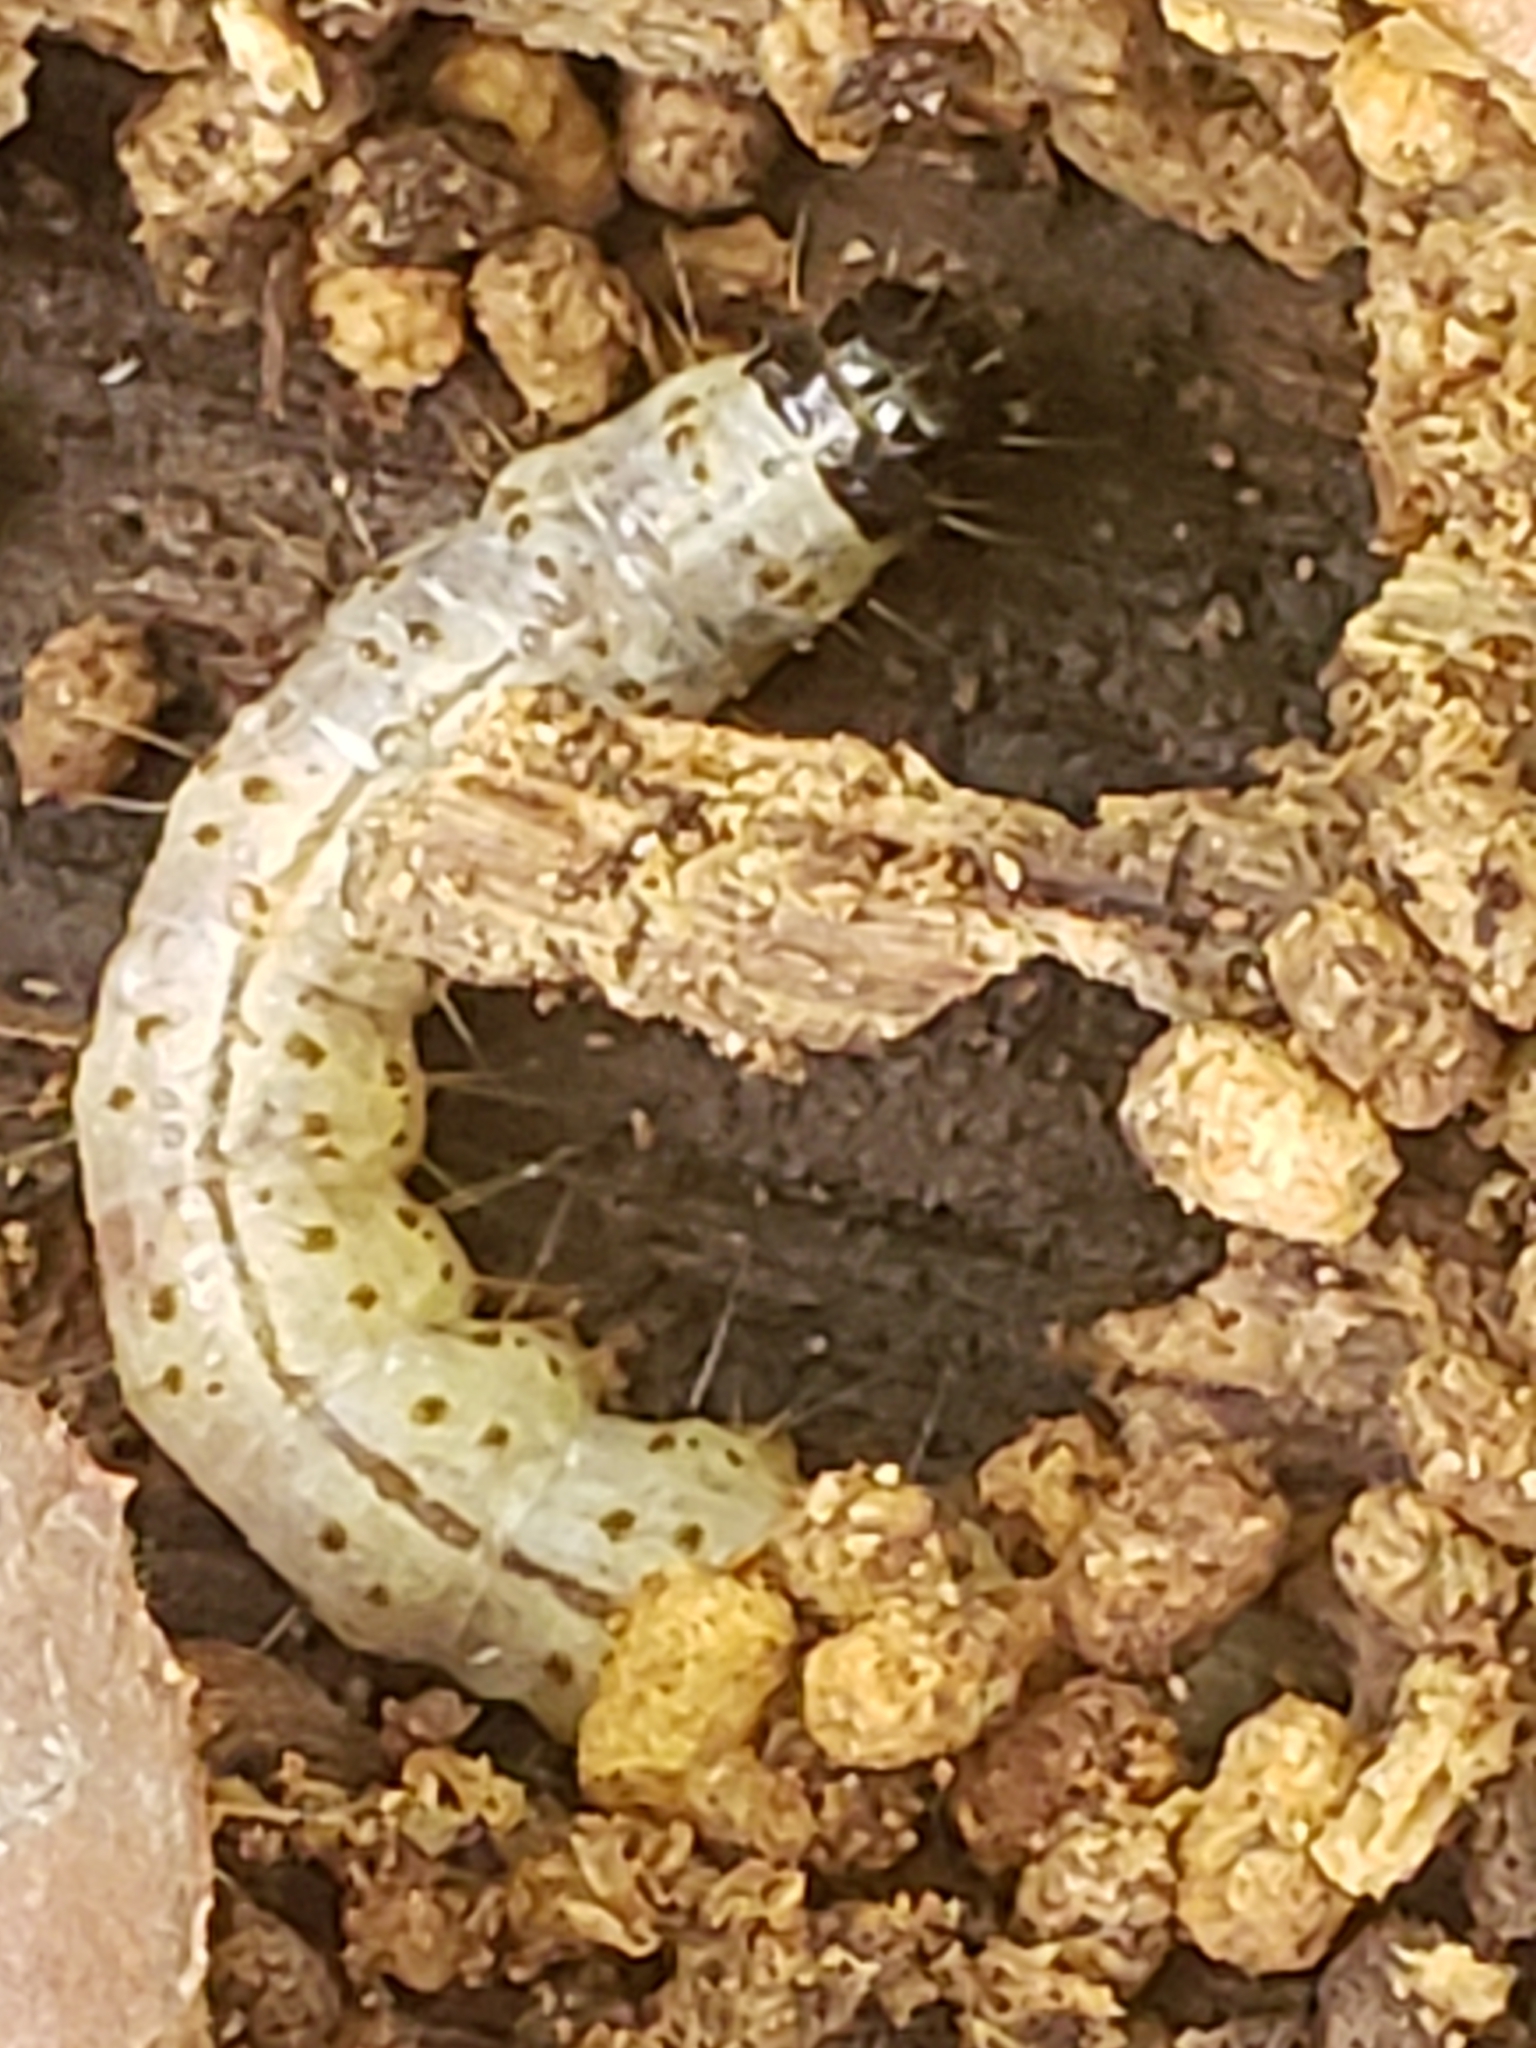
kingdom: Animalia
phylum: Arthropoda
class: Insecta
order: Lepidoptera
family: Erebidae
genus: Scolecocampa
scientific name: Scolecocampa liburna
